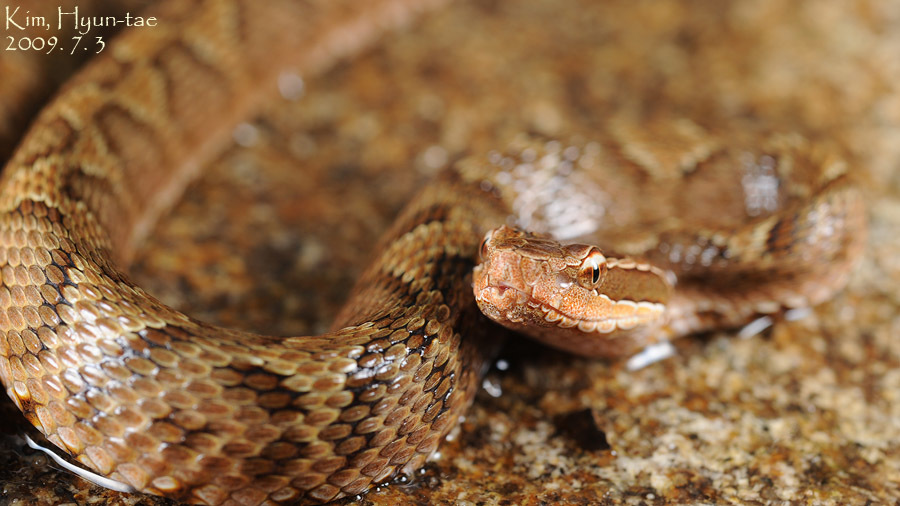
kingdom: Animalia
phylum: Chordata
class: Squamata
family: Viperidae
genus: Gloydius
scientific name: Gloydius ussuriensis
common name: Ussuri mamushi
